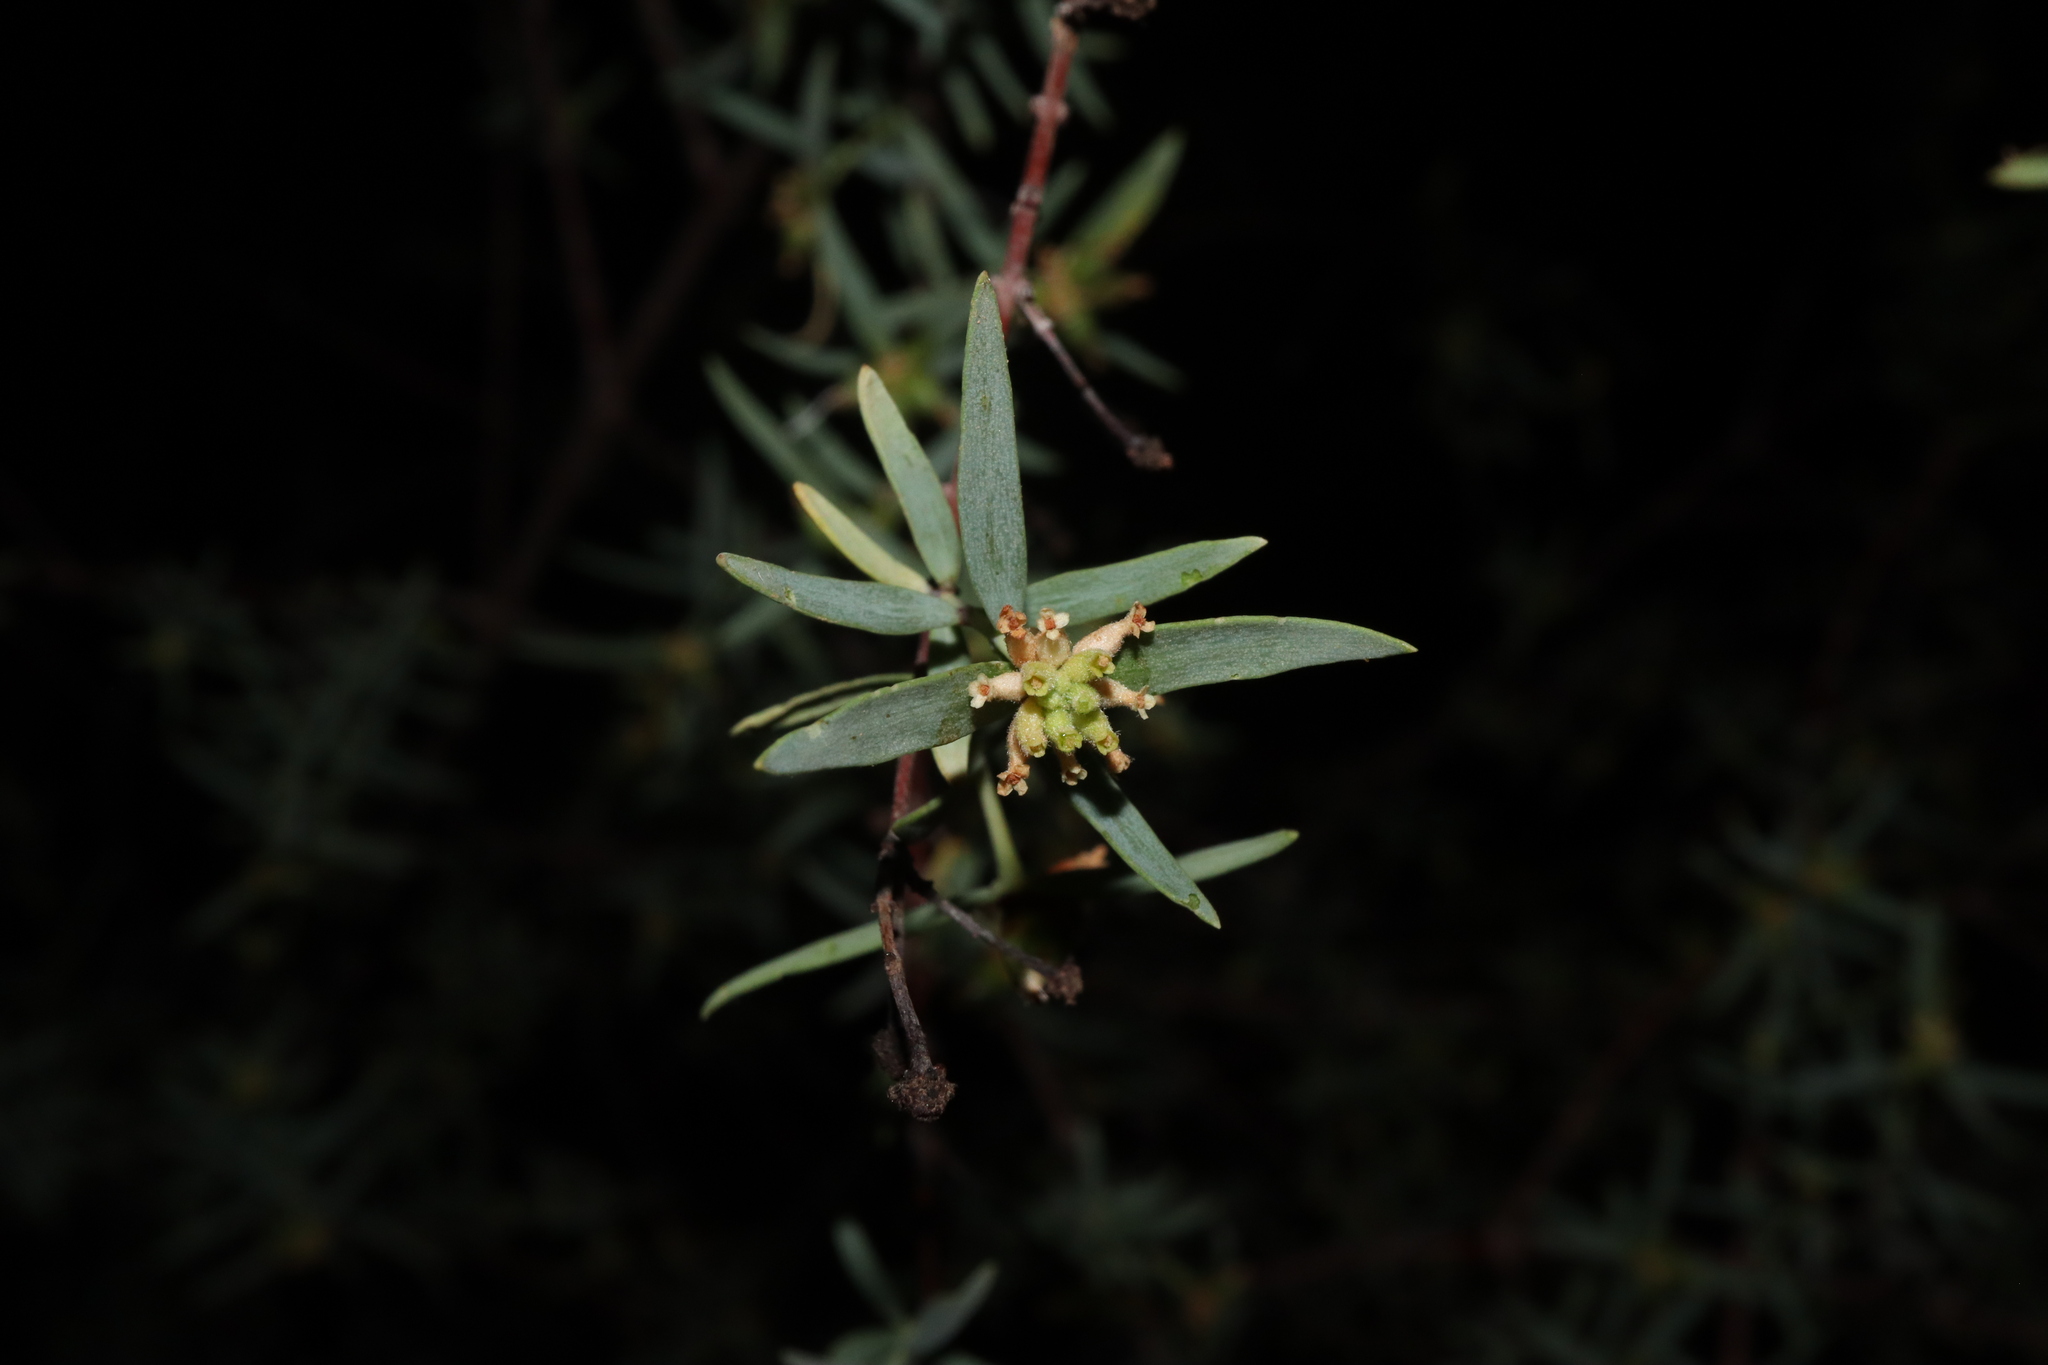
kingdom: Plantae
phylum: Tracheophyta
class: Magnoliopsida
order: Malvales
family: Thymelaeaceae
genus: Pimelea
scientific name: Pimelea microcephala
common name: Mallee riceflower
